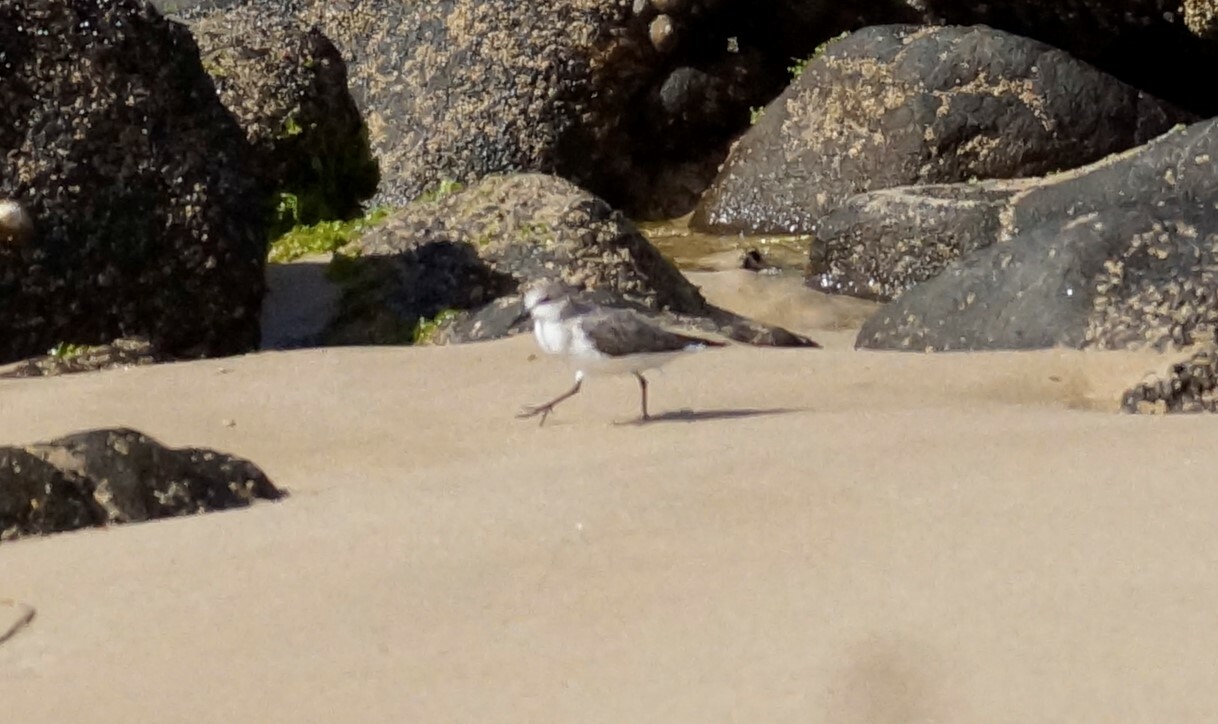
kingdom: Animalia
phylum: Chordata
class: Aves
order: Charadriiformes
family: Scolopacidae
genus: Calidris
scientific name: Calidris ruficollis
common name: Red-necked stint
